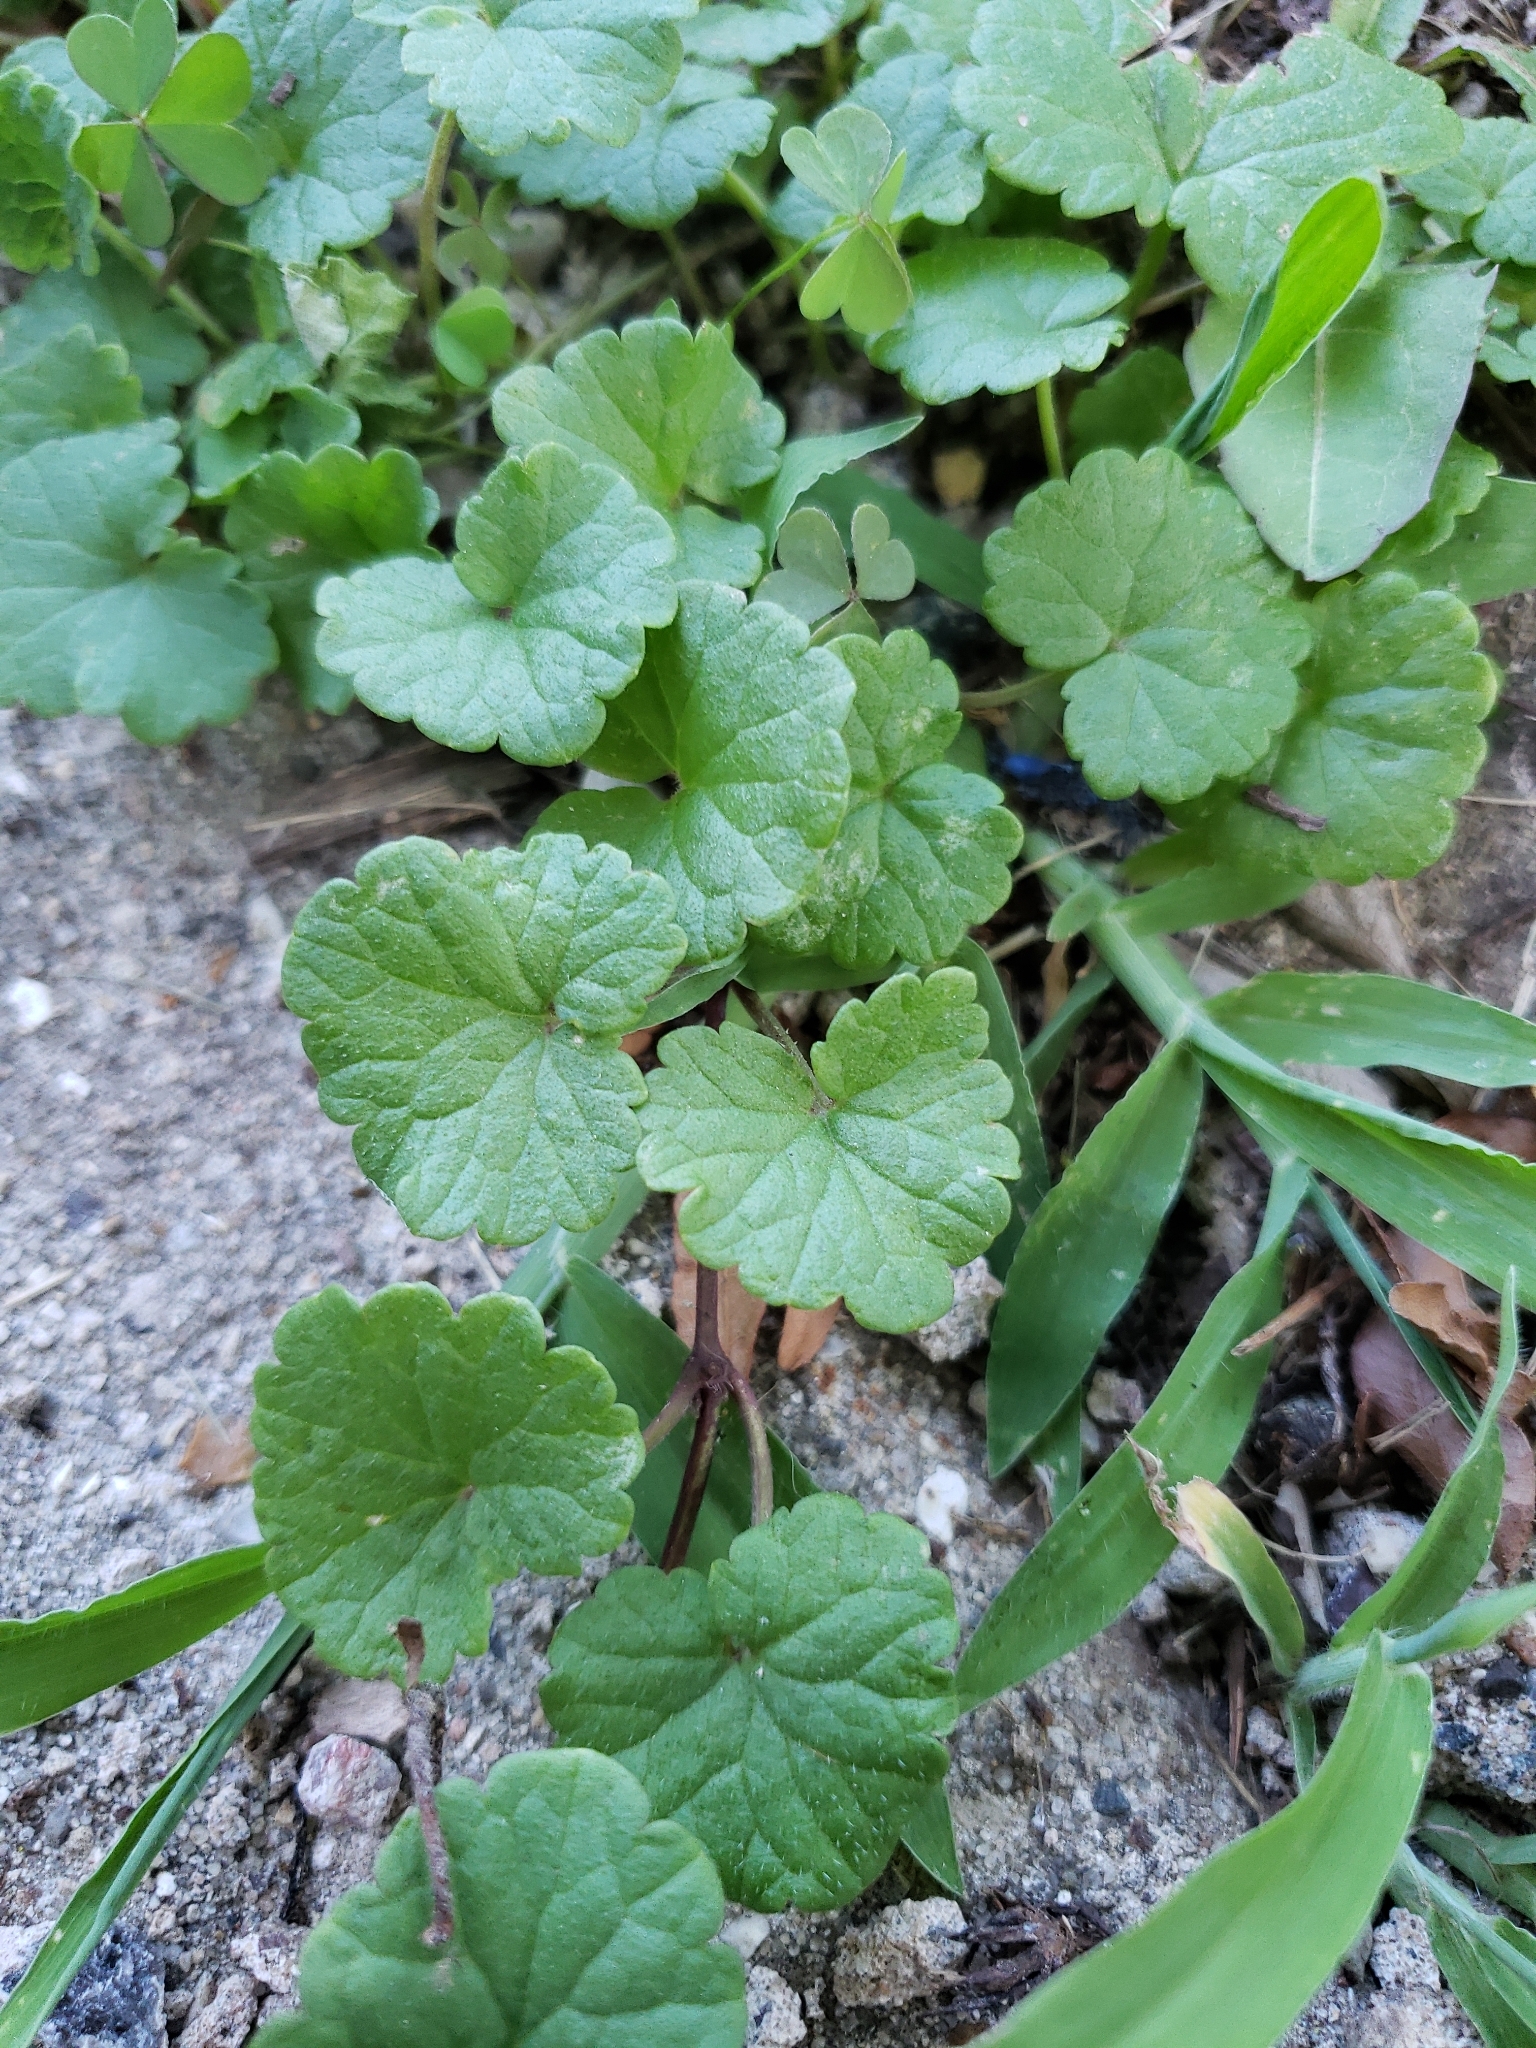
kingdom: Plantae
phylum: Tracheophyta
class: Magnoliopsida
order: Lamiales
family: Lamiaceae
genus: Glechoma
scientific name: Glechoma hederacea
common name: Ground ivy
